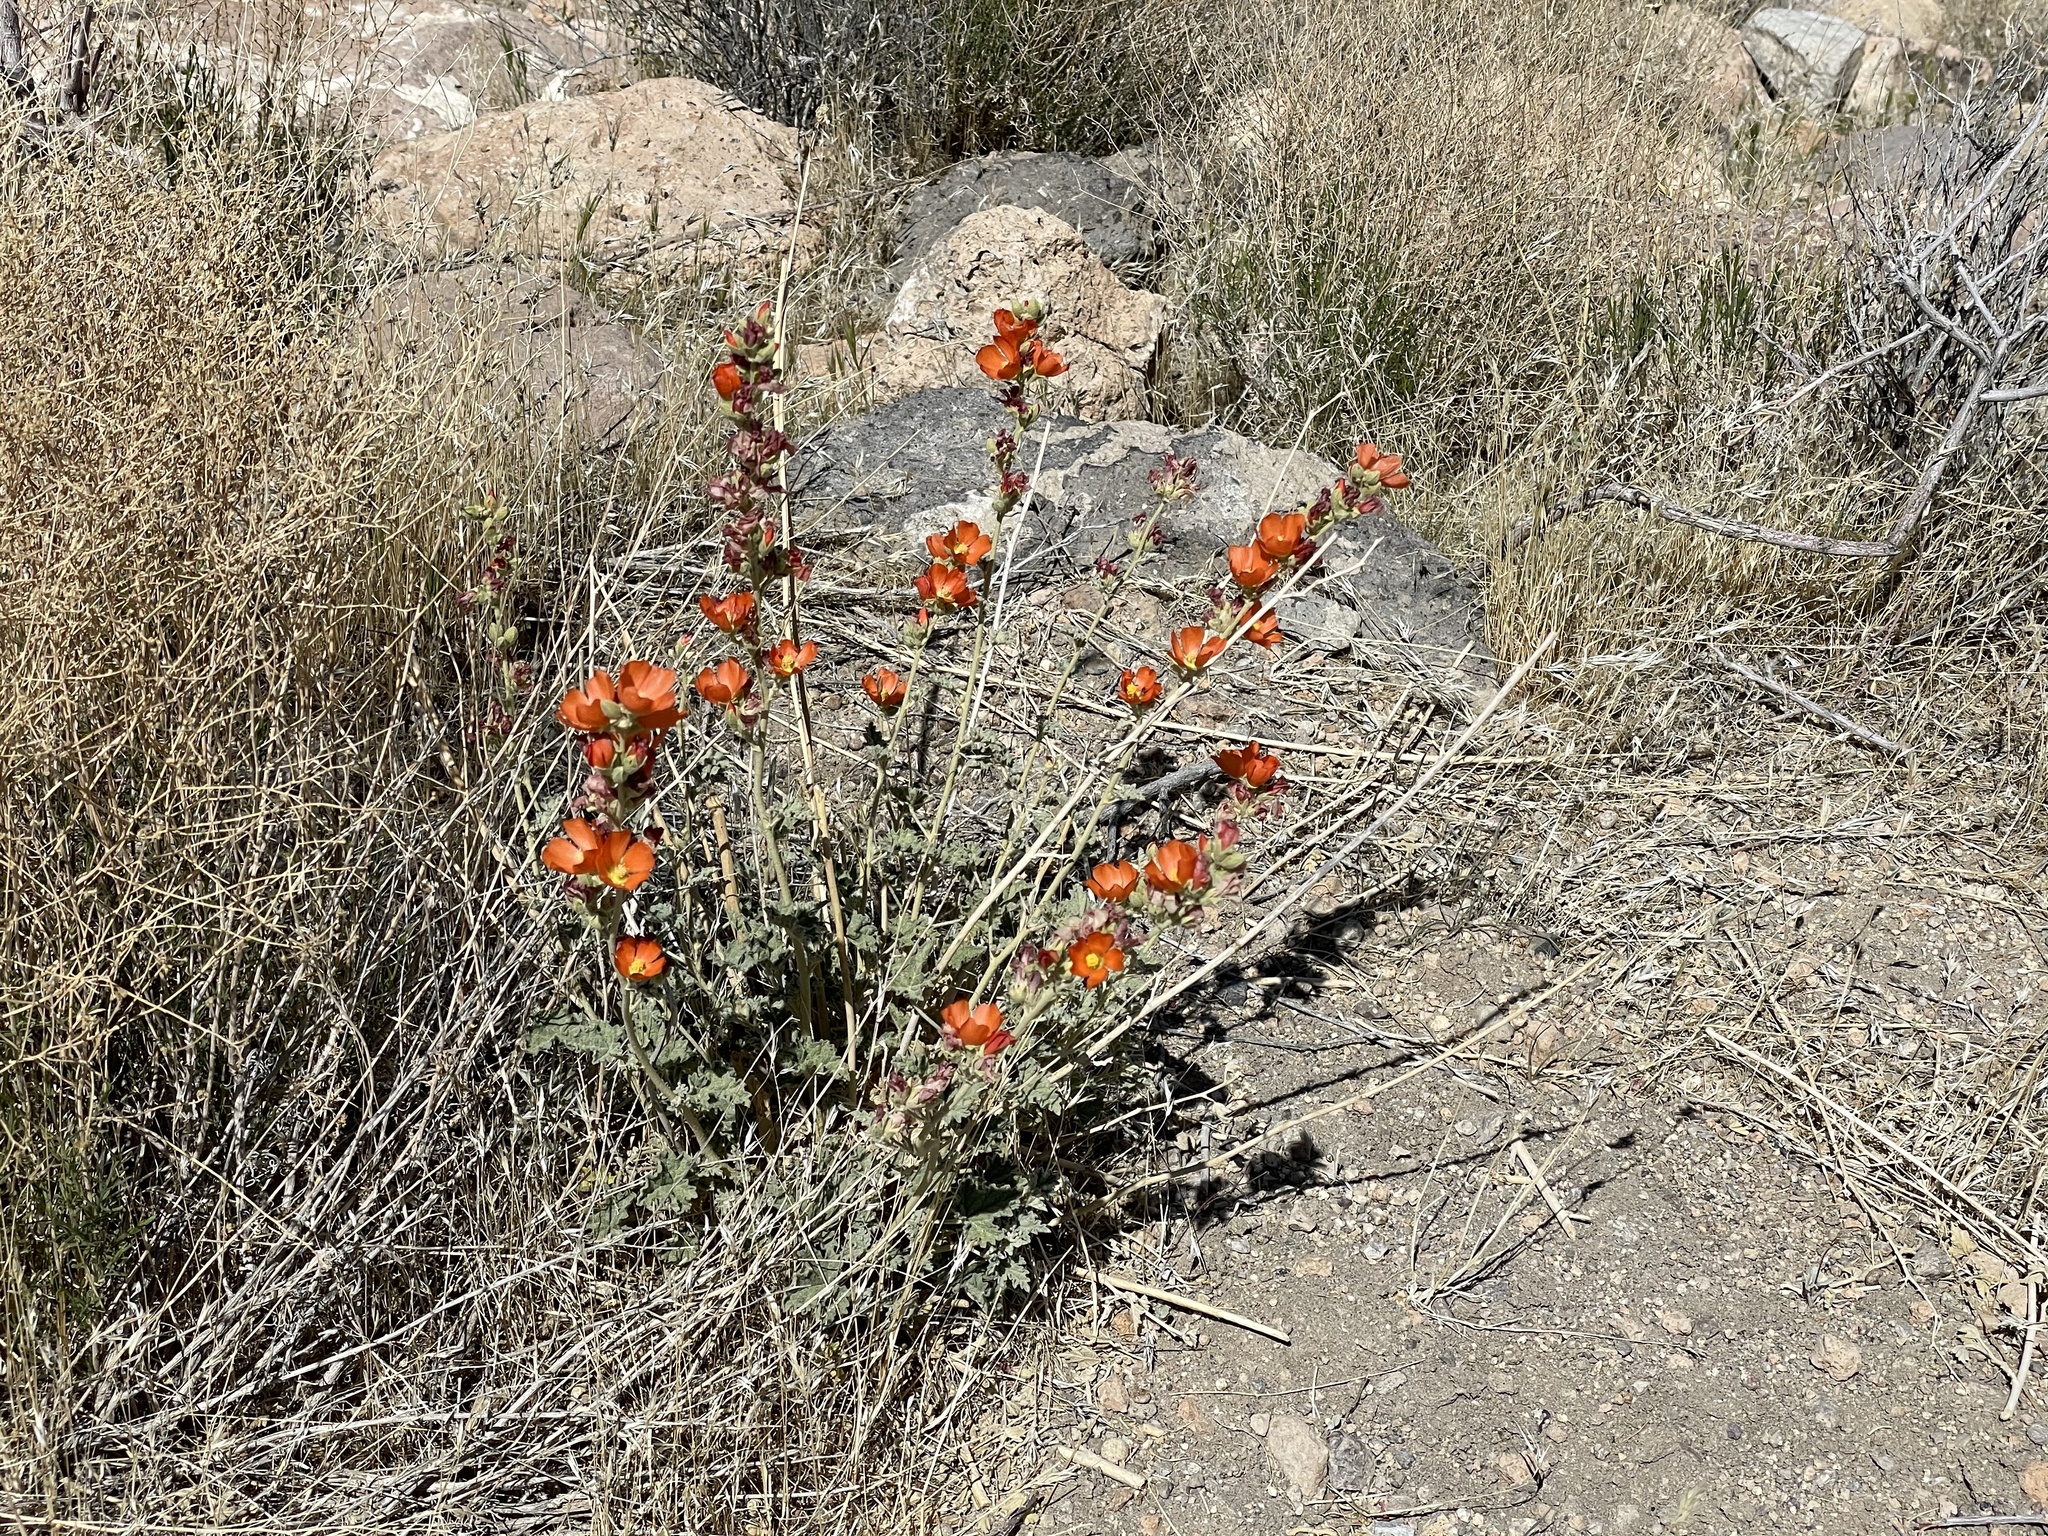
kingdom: Plantae
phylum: Tracheophyta
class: Magnoliopsida
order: Malvales
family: Malvaceae
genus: Sphaeralcea
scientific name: Sphaeralcea ambigua
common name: Apricot globe-mallow
